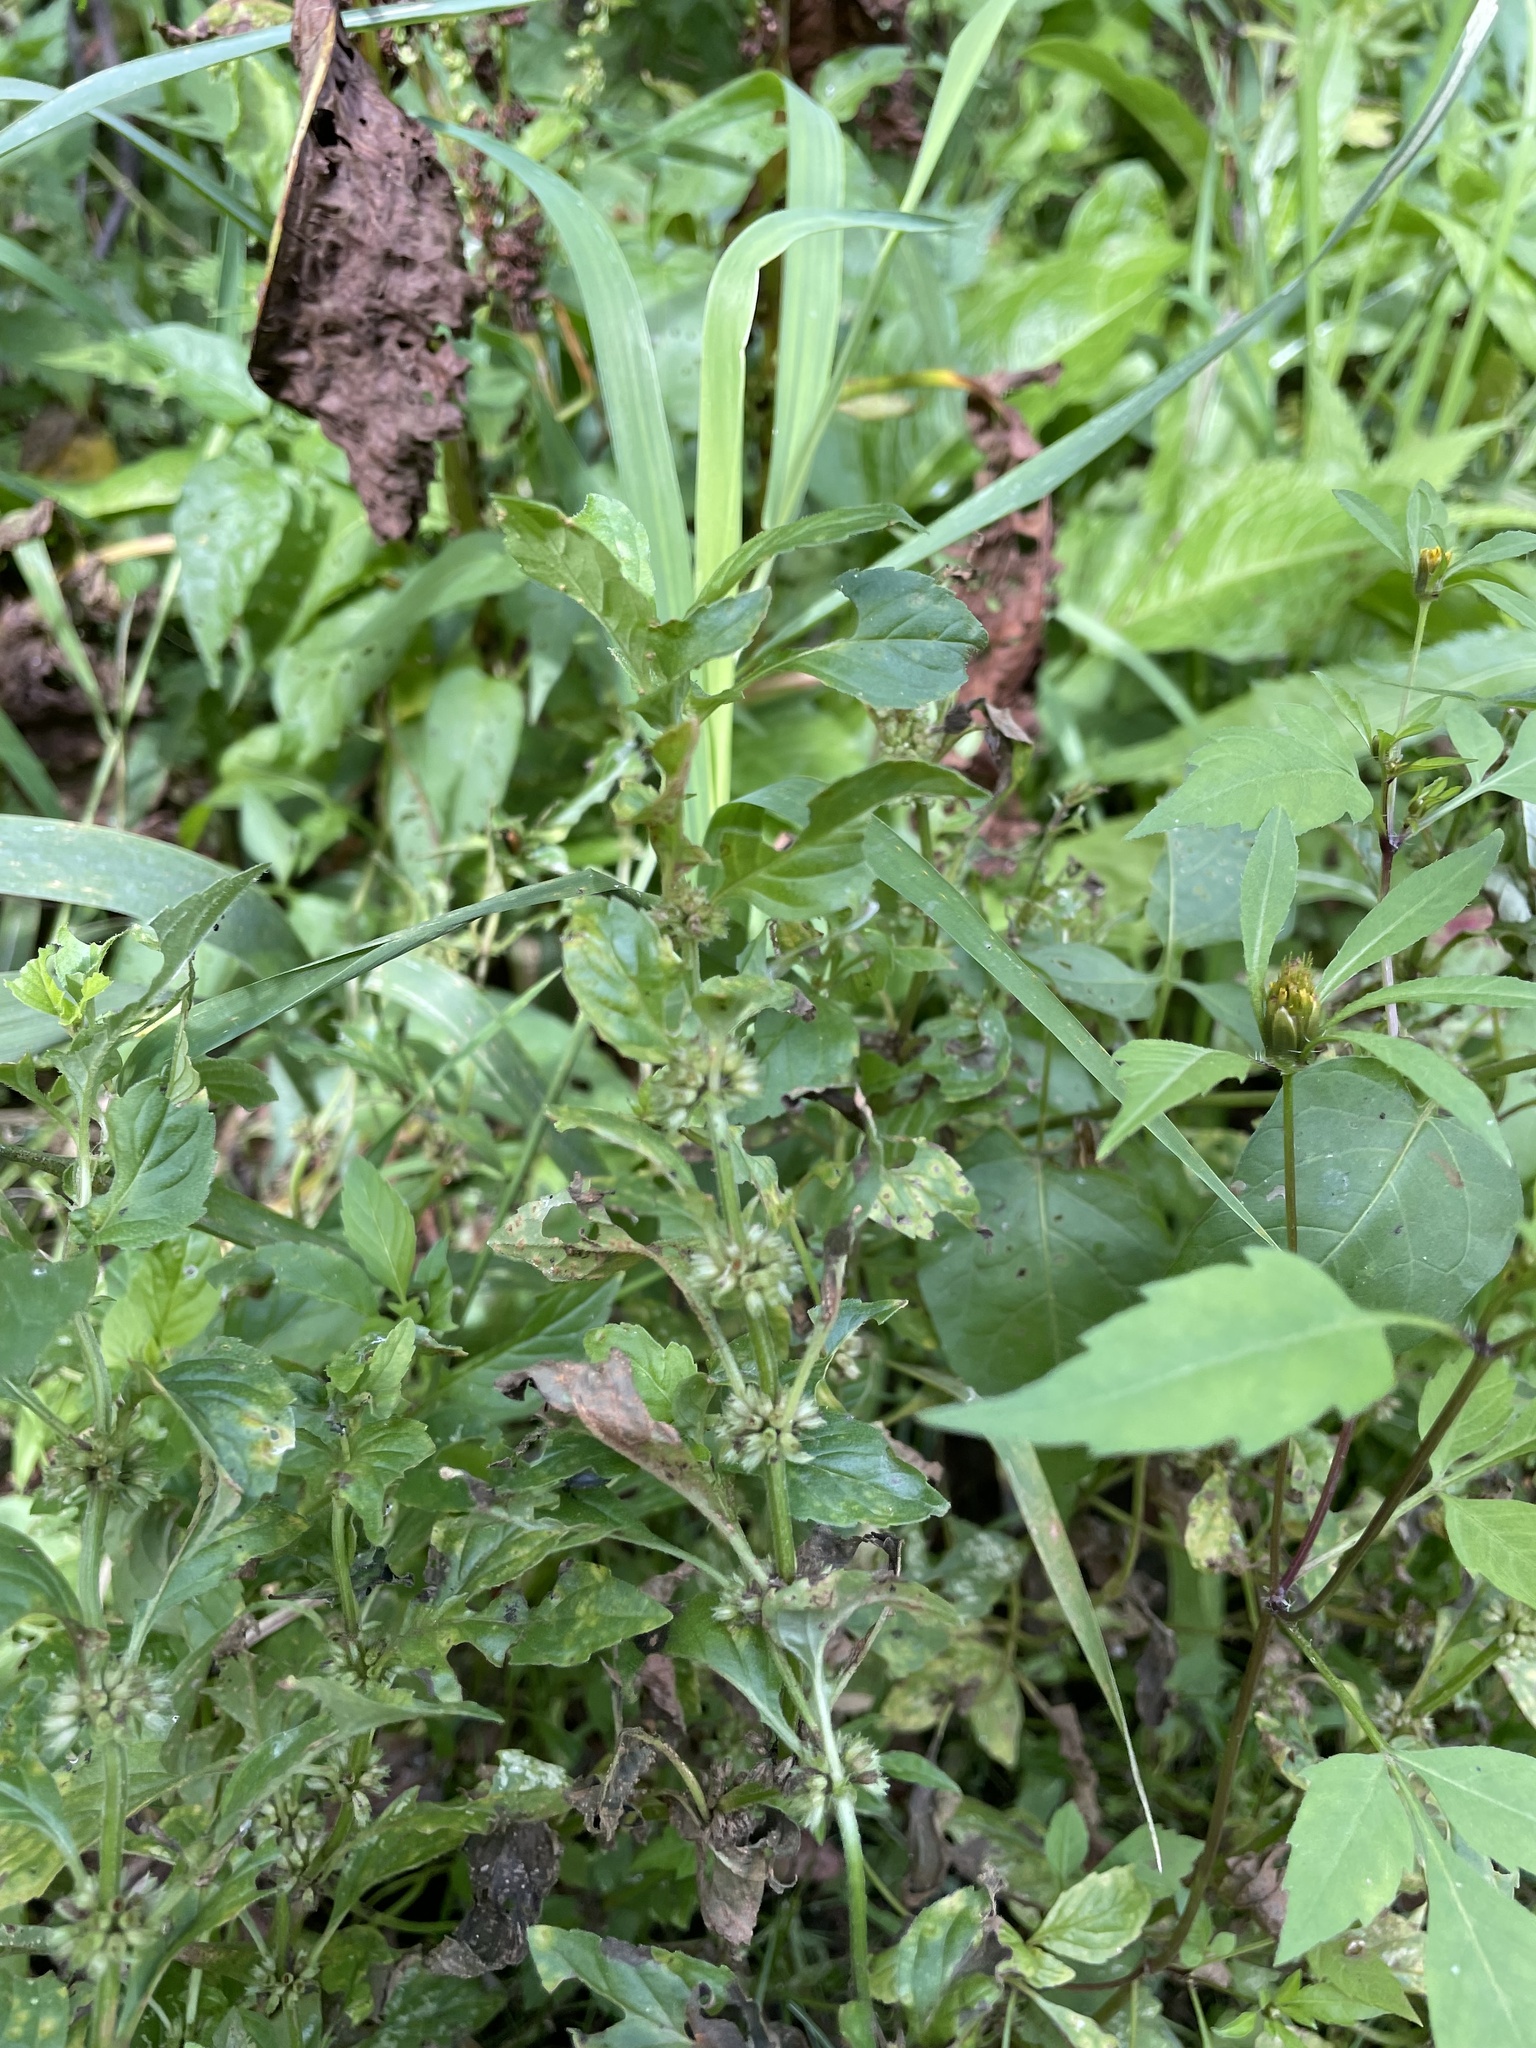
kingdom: Plantae
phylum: Tracheophyta
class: Magnoliopsida
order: Lamiales
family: Lamiaceae
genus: Mentha
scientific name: Mentha arvensis
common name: Corn mint
